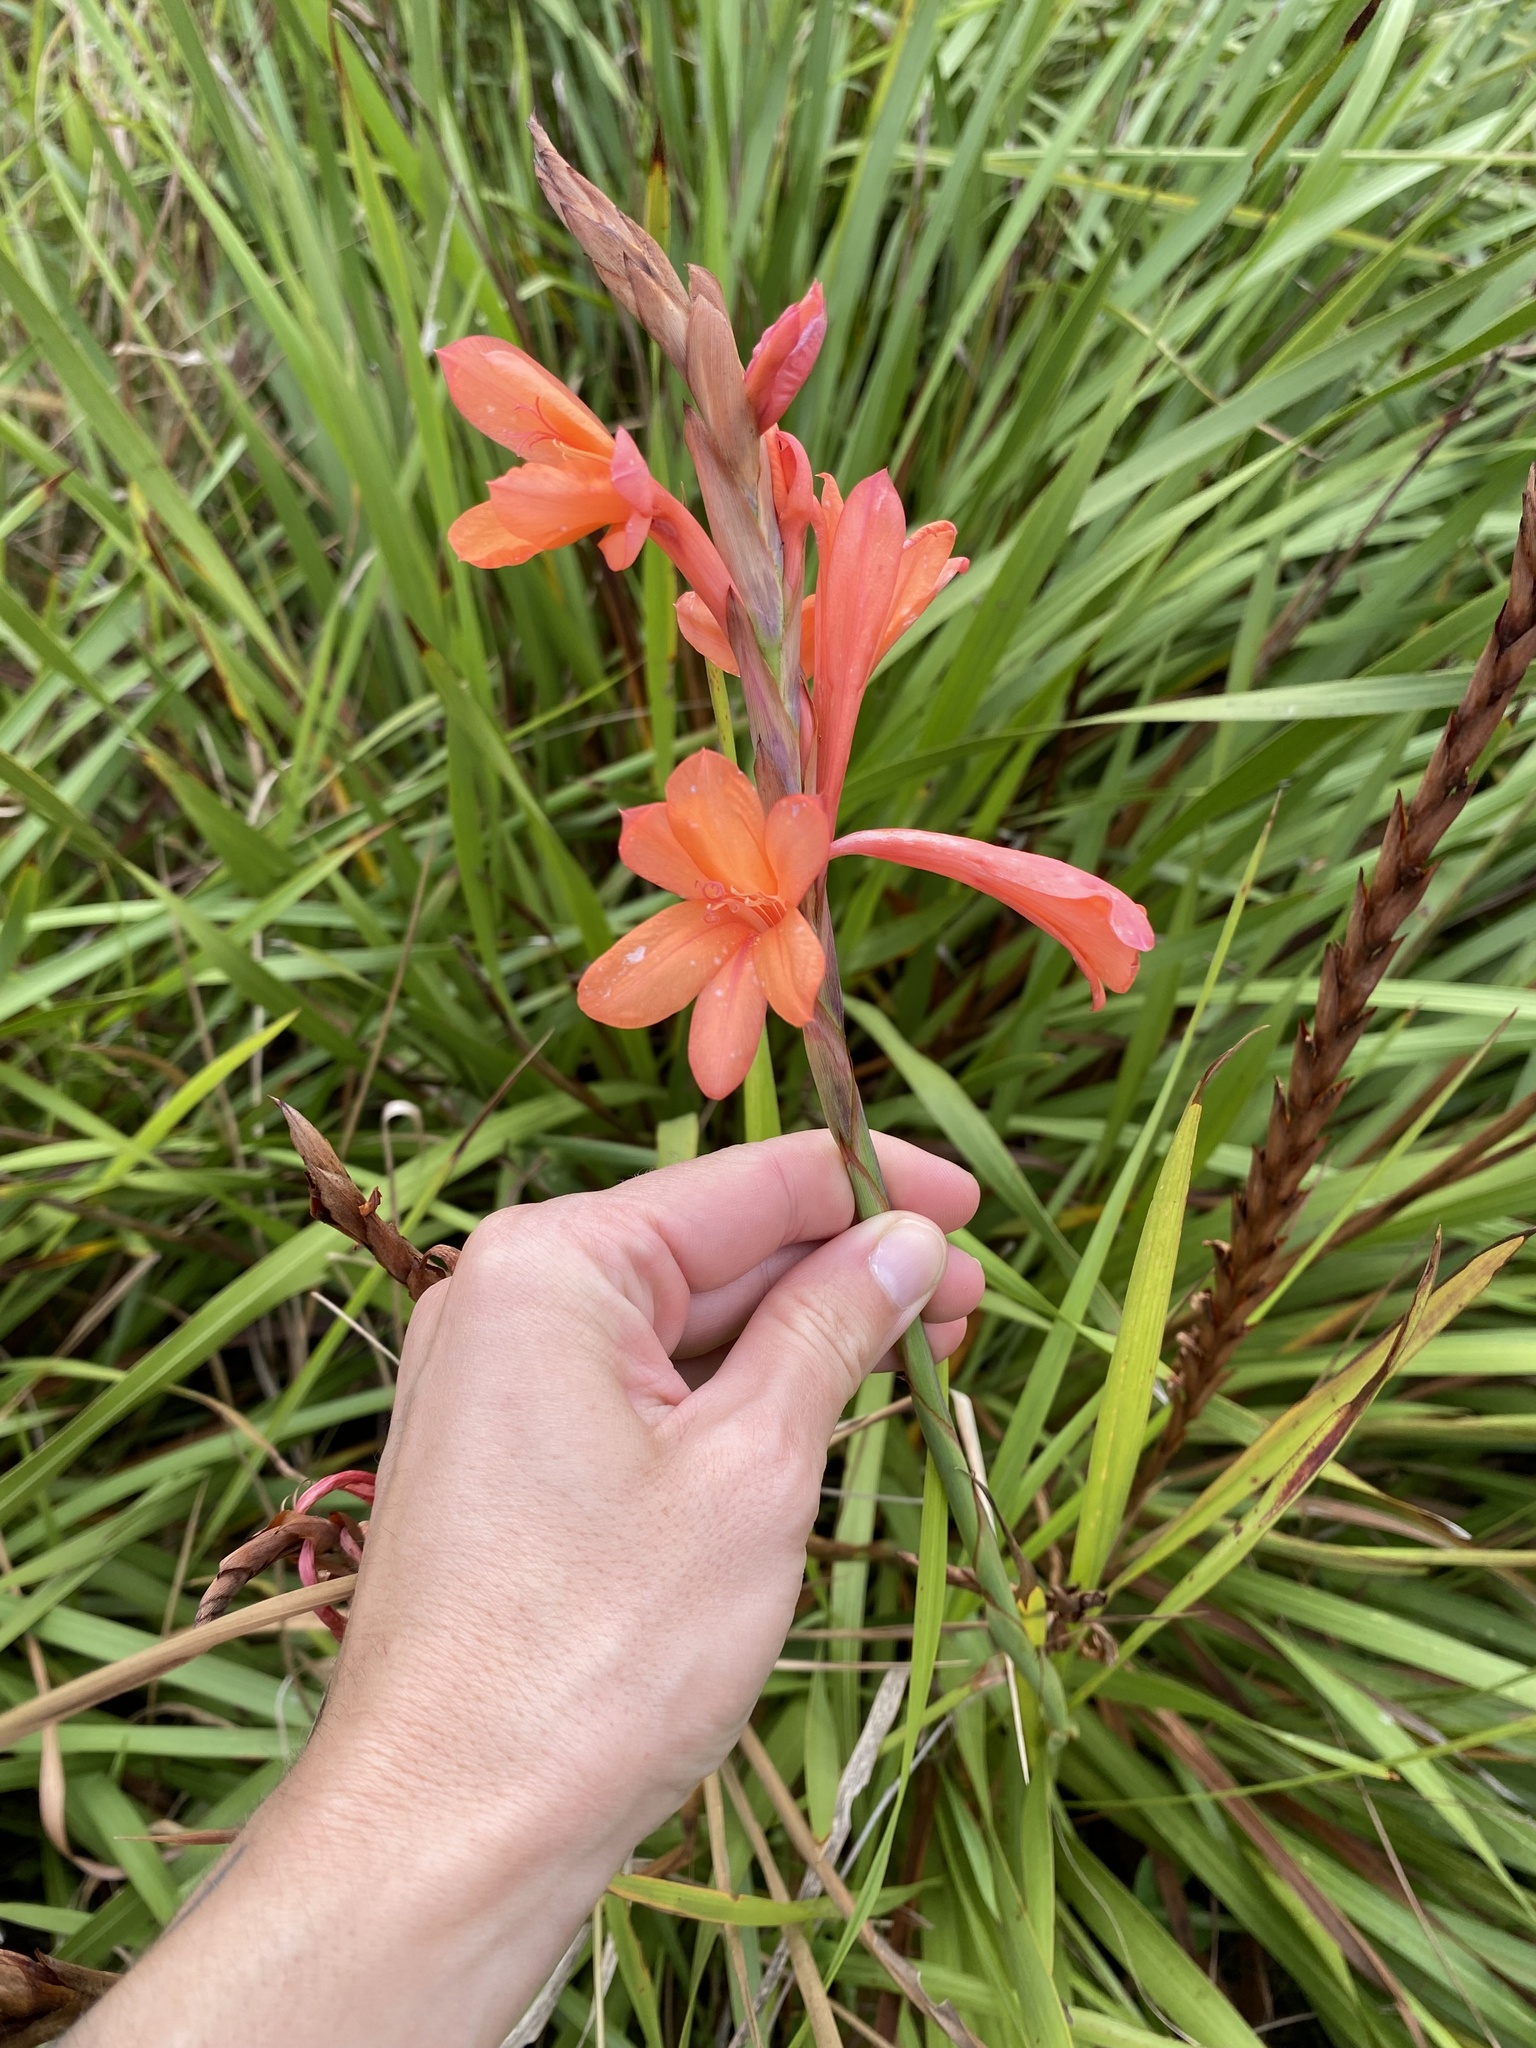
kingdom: Plantae
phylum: Tracheophyta
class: Liliopsida
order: Asparagales
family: Iridaceae
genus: Watsonia
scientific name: Watsonia pillansii
